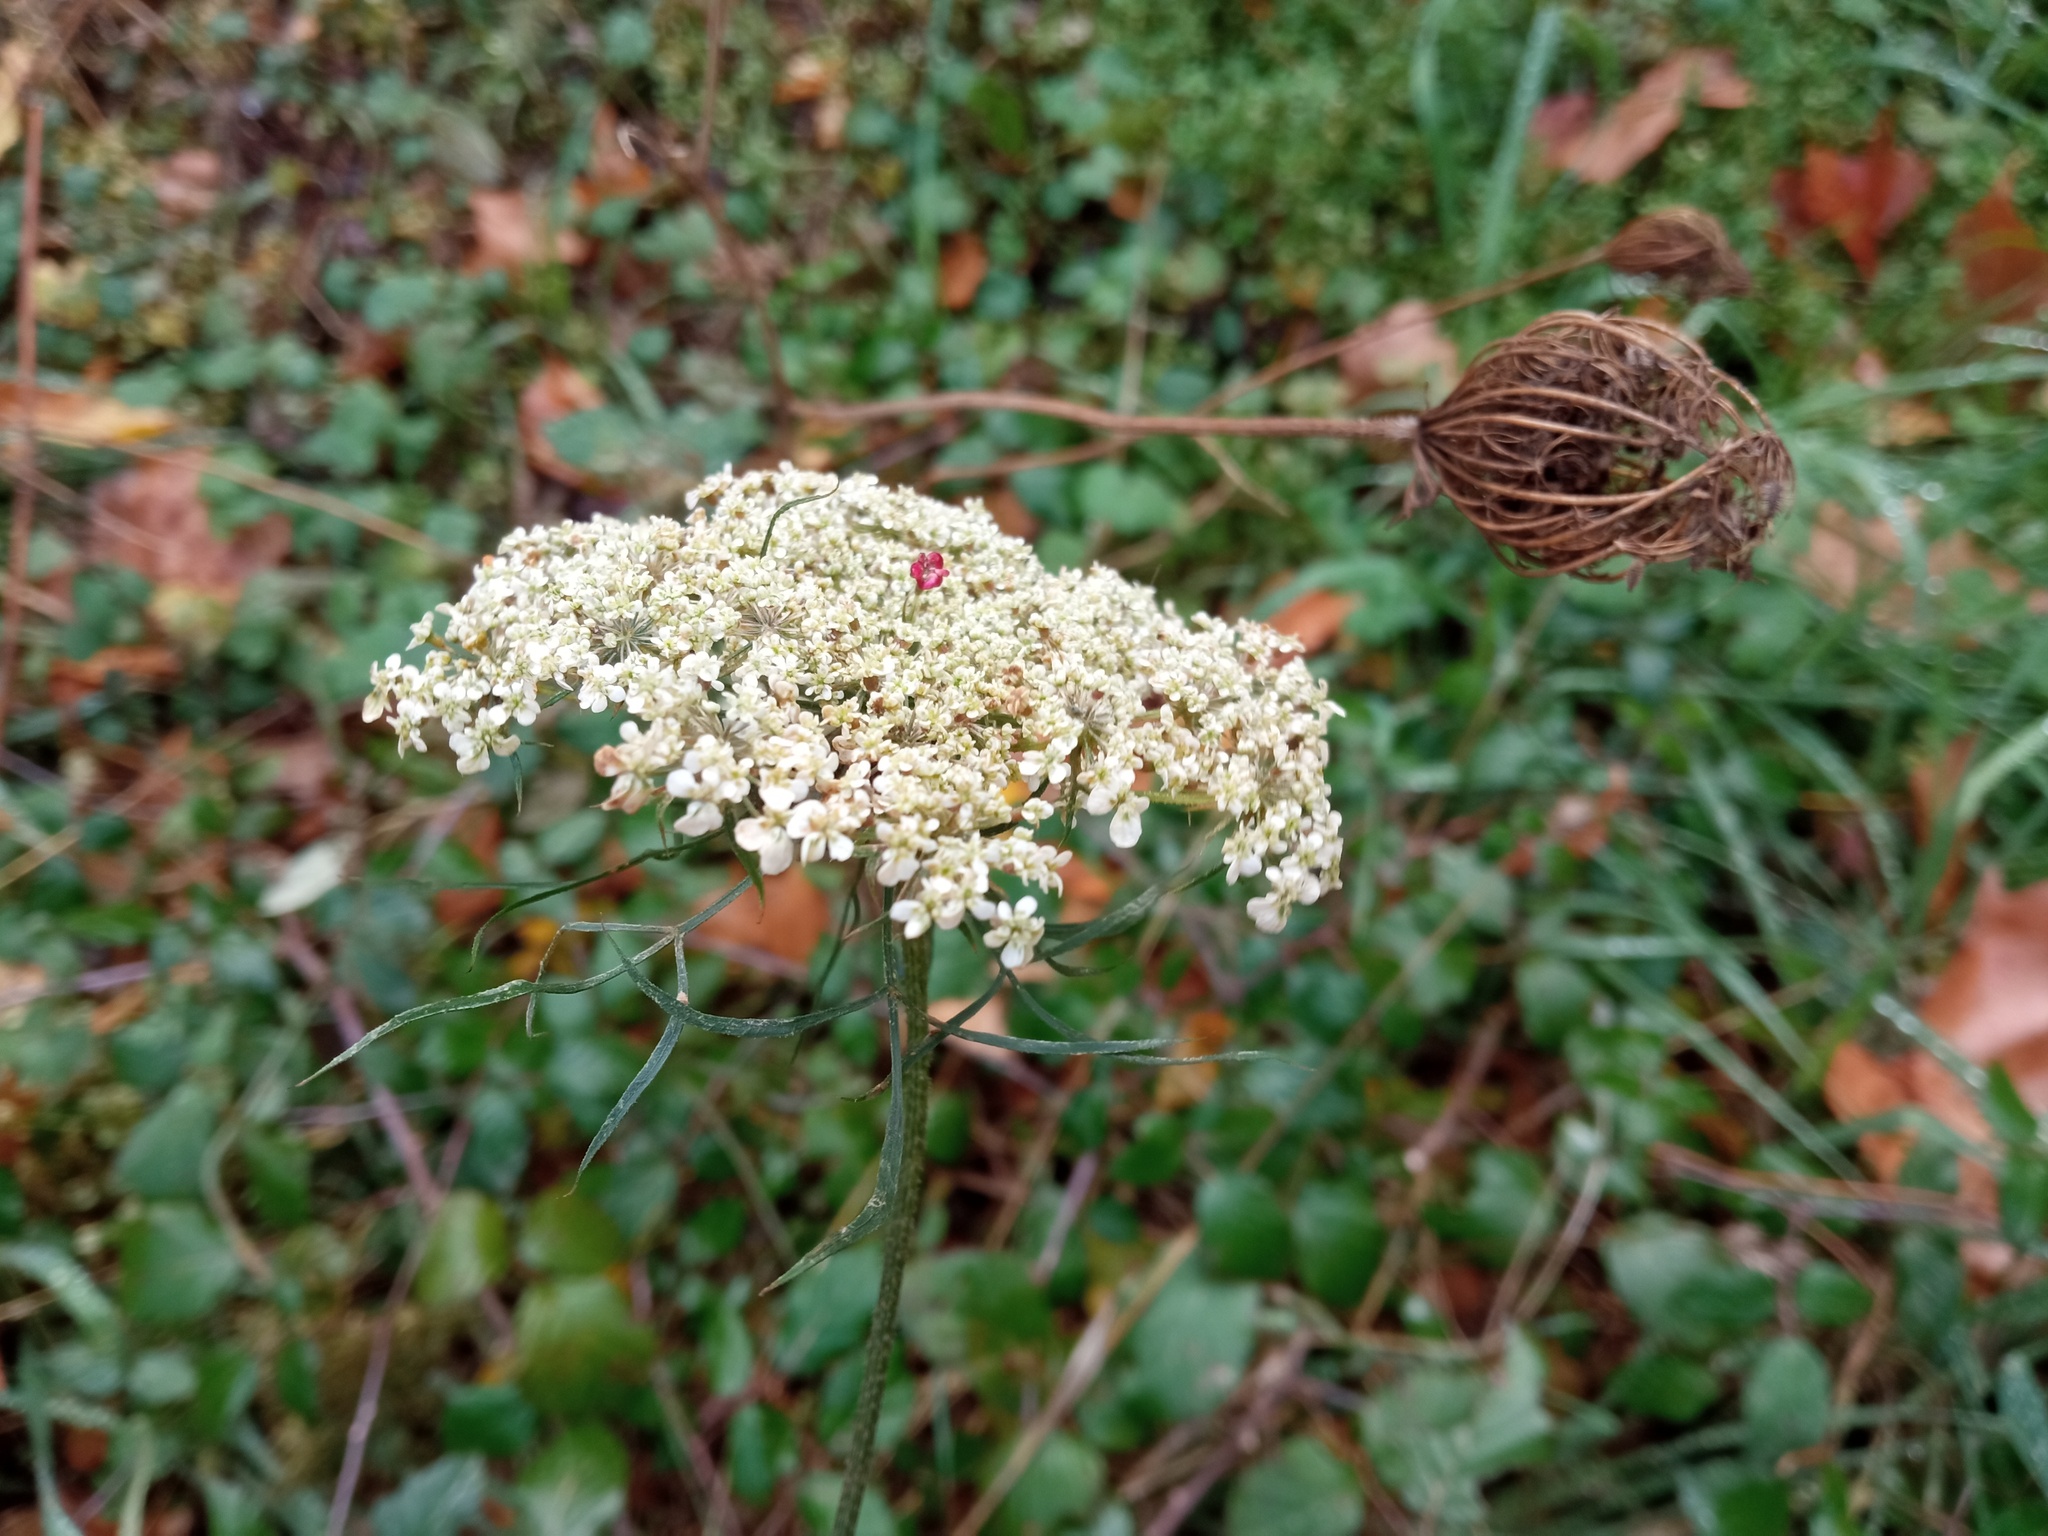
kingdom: Plantae
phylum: Tracheophyta
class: Magnoliopsida
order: Apiales
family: Apiaceae
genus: Daucus
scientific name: Daucus carota
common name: Wild carrot
